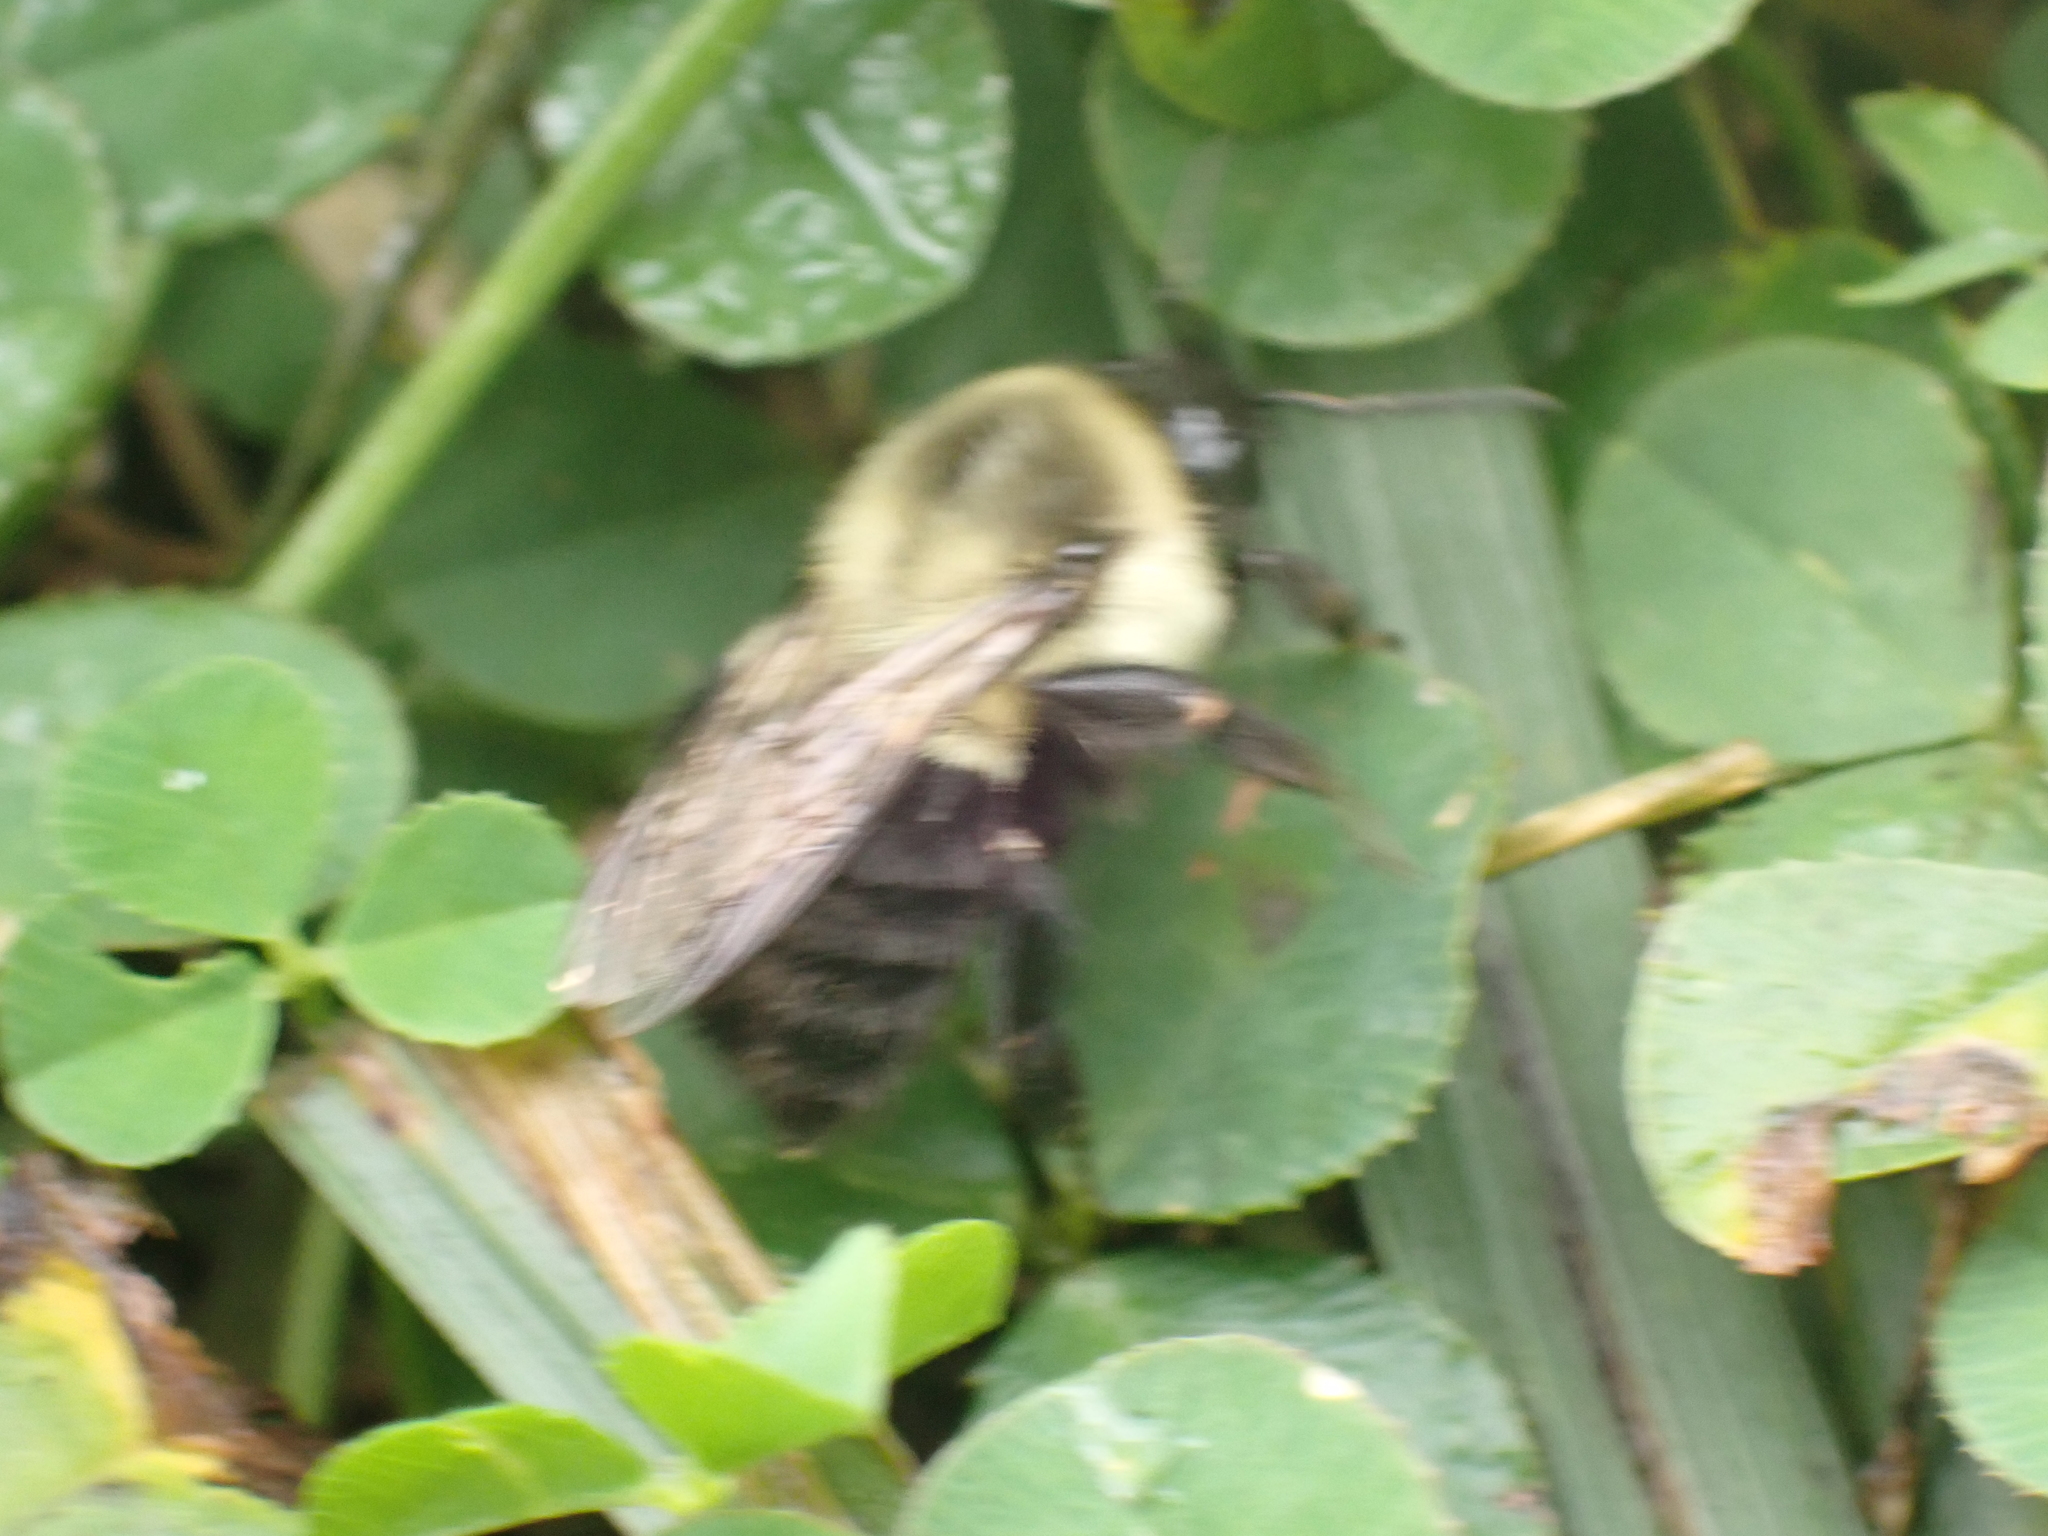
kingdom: Animalia
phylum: Arthropoda
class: Insecta
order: Hymenoptera
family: Apidae
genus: Bombus
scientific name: Bombus impatiens
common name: Common eastern bumble bee
